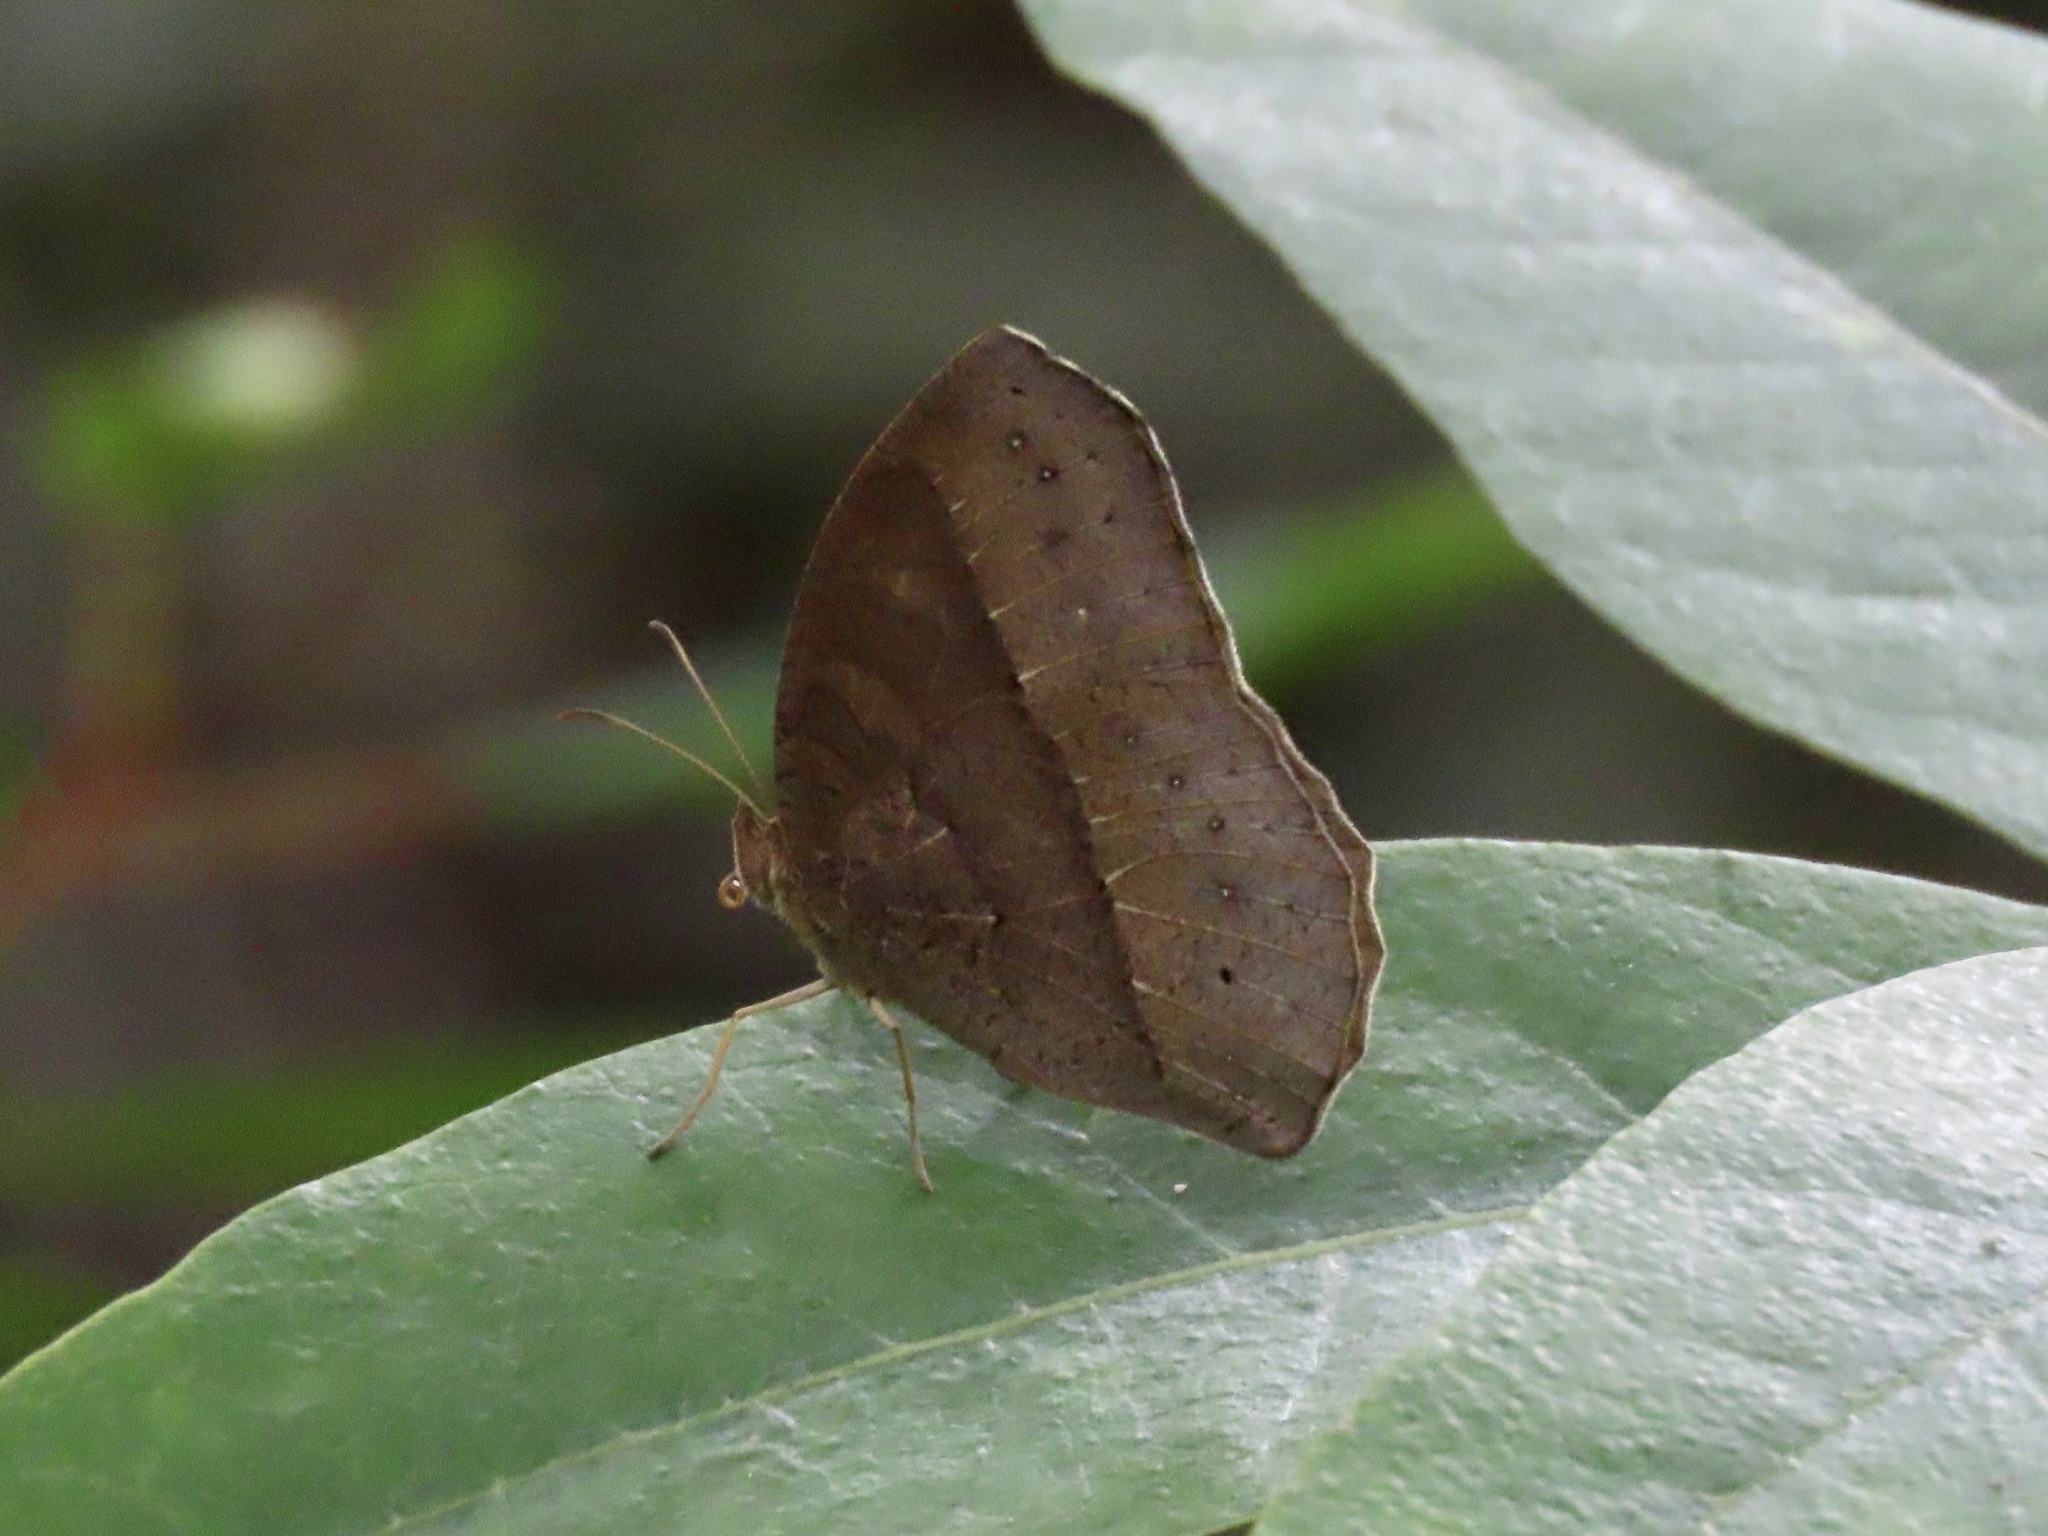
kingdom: Animalia
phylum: Arthropoda
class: Insecta
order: Lepidoptera
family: Nymphalidae
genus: Mycalesis
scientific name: Mycalesis horsfieldii
